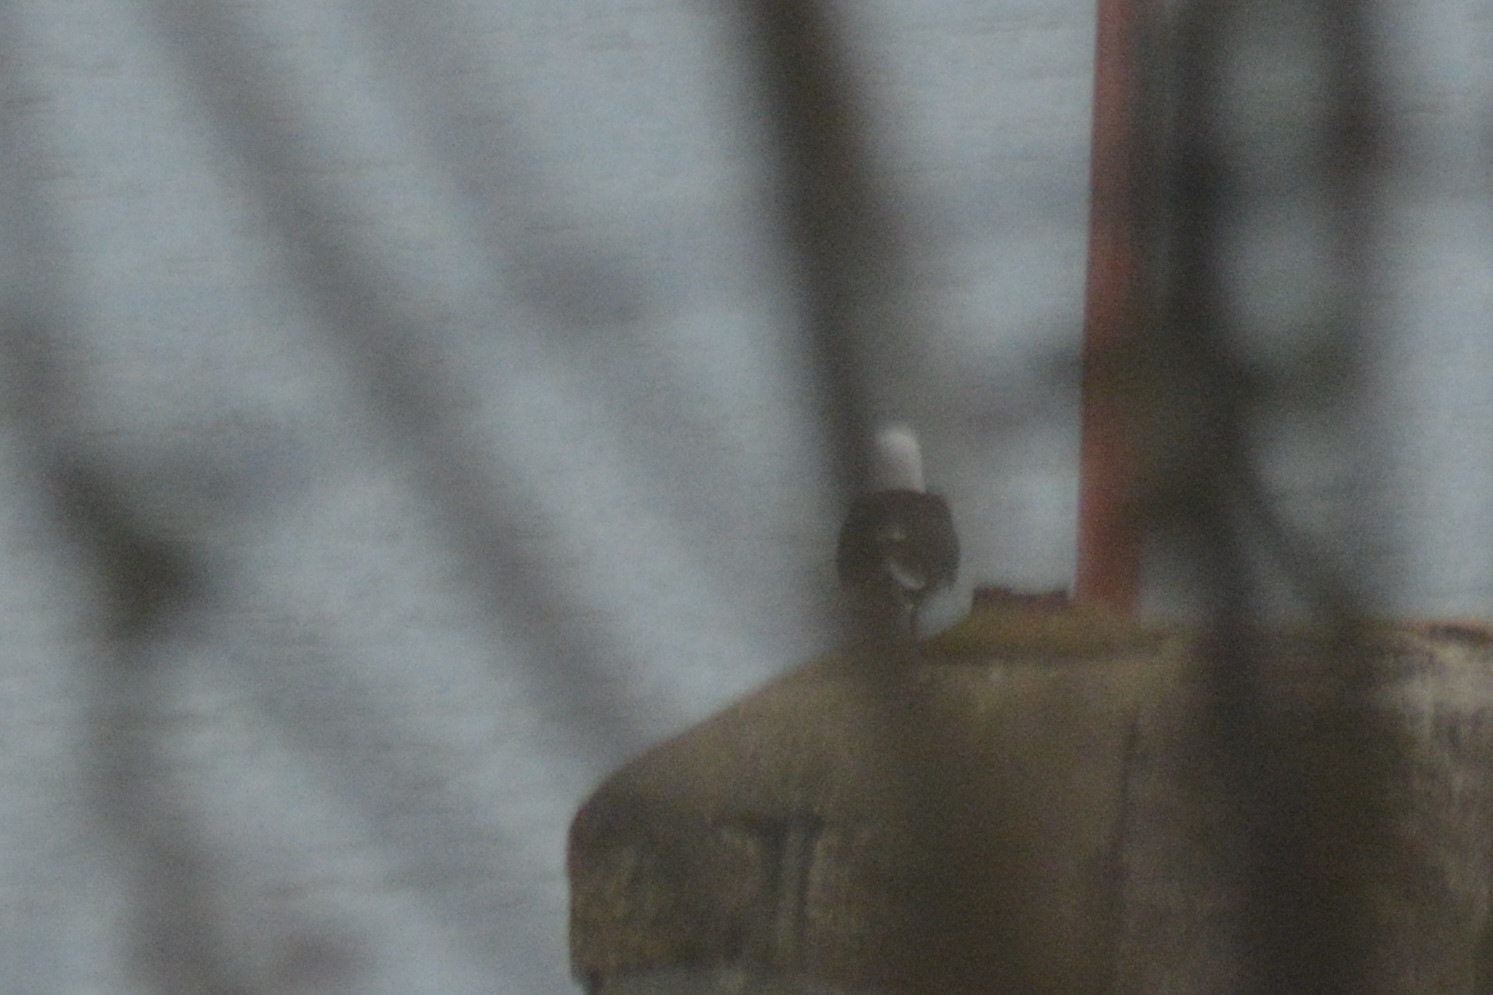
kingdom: Animalia
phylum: Chordata
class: Aves
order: Charadriiformes
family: Laridae
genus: Larus
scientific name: Larus marinus
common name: Great black-backed gull
